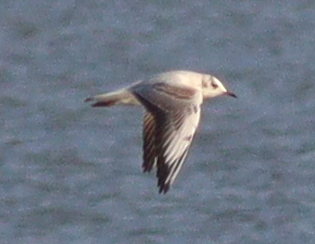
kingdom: Animalia
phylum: Chordata
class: Aves
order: Charadriiformes
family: Laridae
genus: Chroicocephalus
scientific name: Chroicocephalus ridibundus
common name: Black-headed gull
